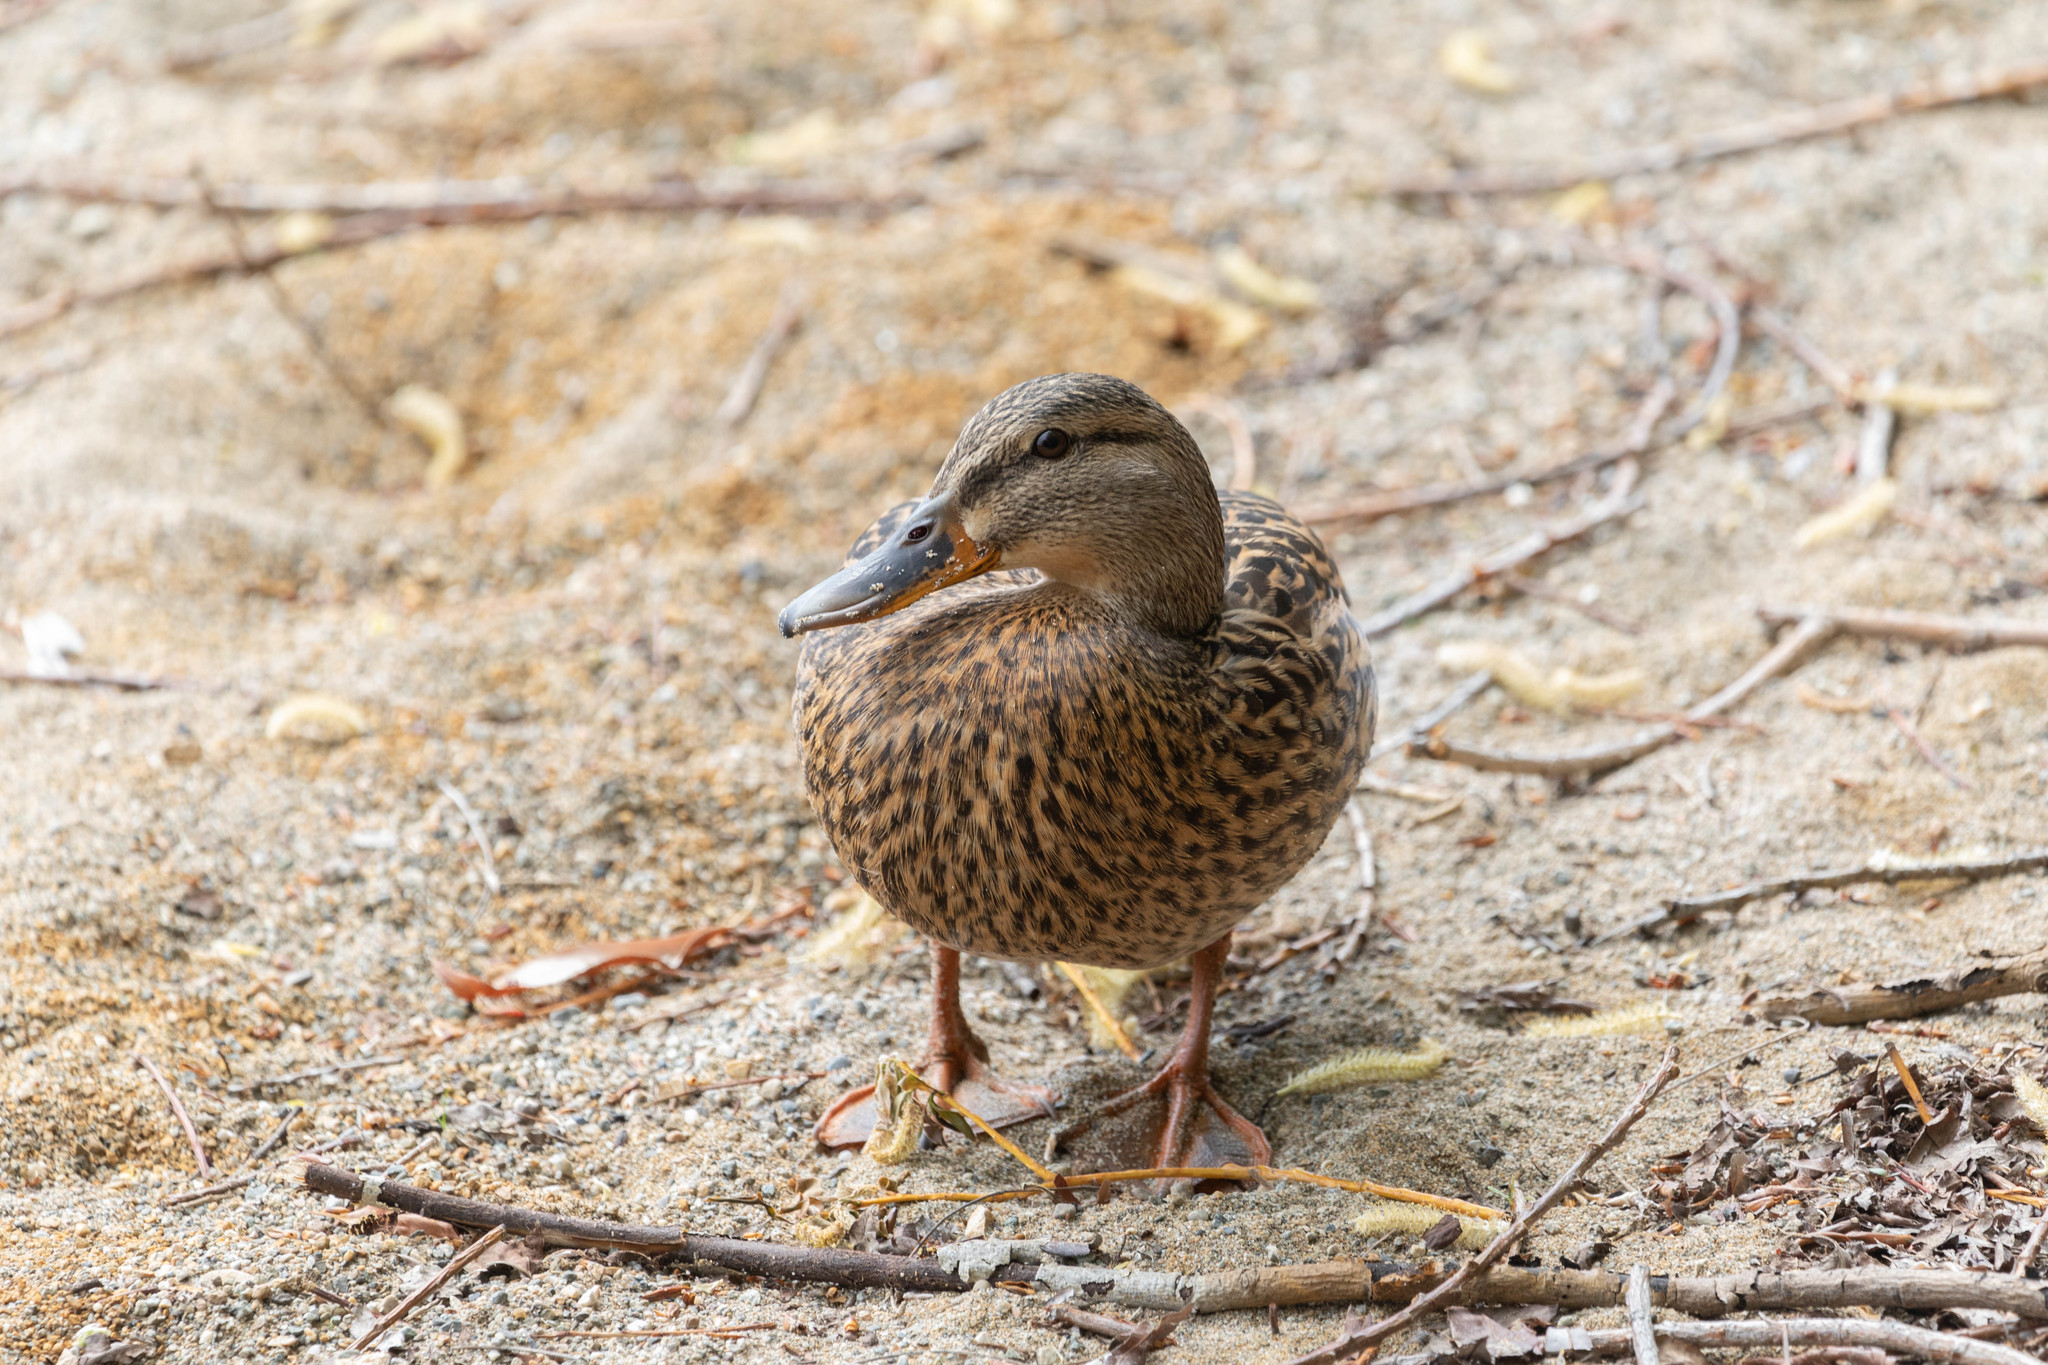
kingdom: Animalia
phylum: Chordata
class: Aves
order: Anseriformes
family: Anatidae
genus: Anas
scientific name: Anas platyrhynchos
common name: Mallard
